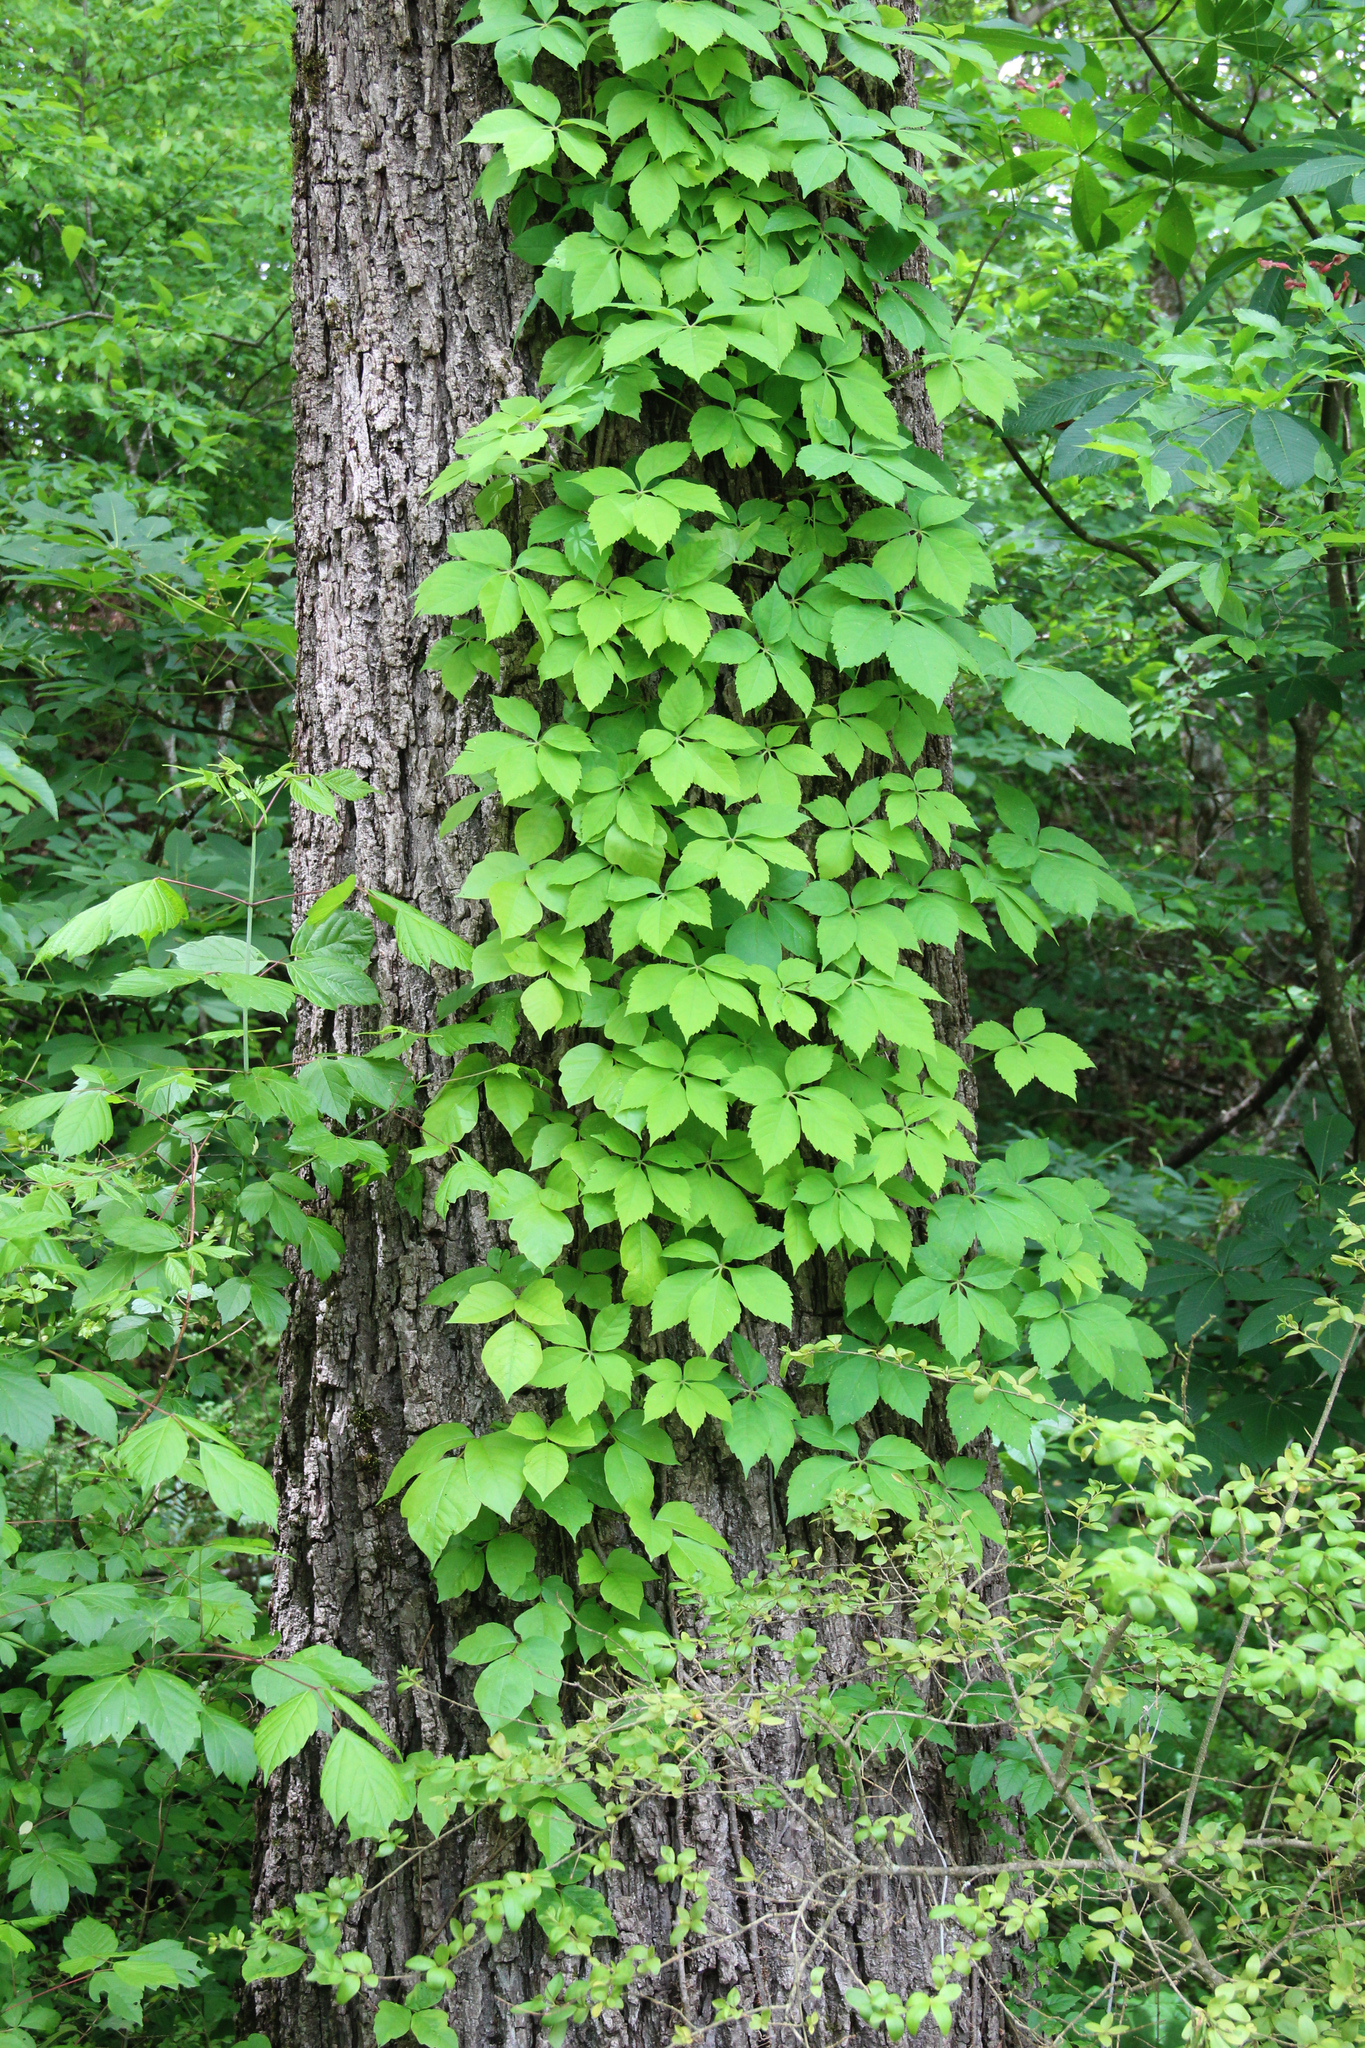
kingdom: Plantae
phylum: Tracheophyta
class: Magnoliopsida
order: Vitales
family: Vitaceae
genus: Parthenocissus
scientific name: Parthenocissus quinquefolia
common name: Virginia-creeper
